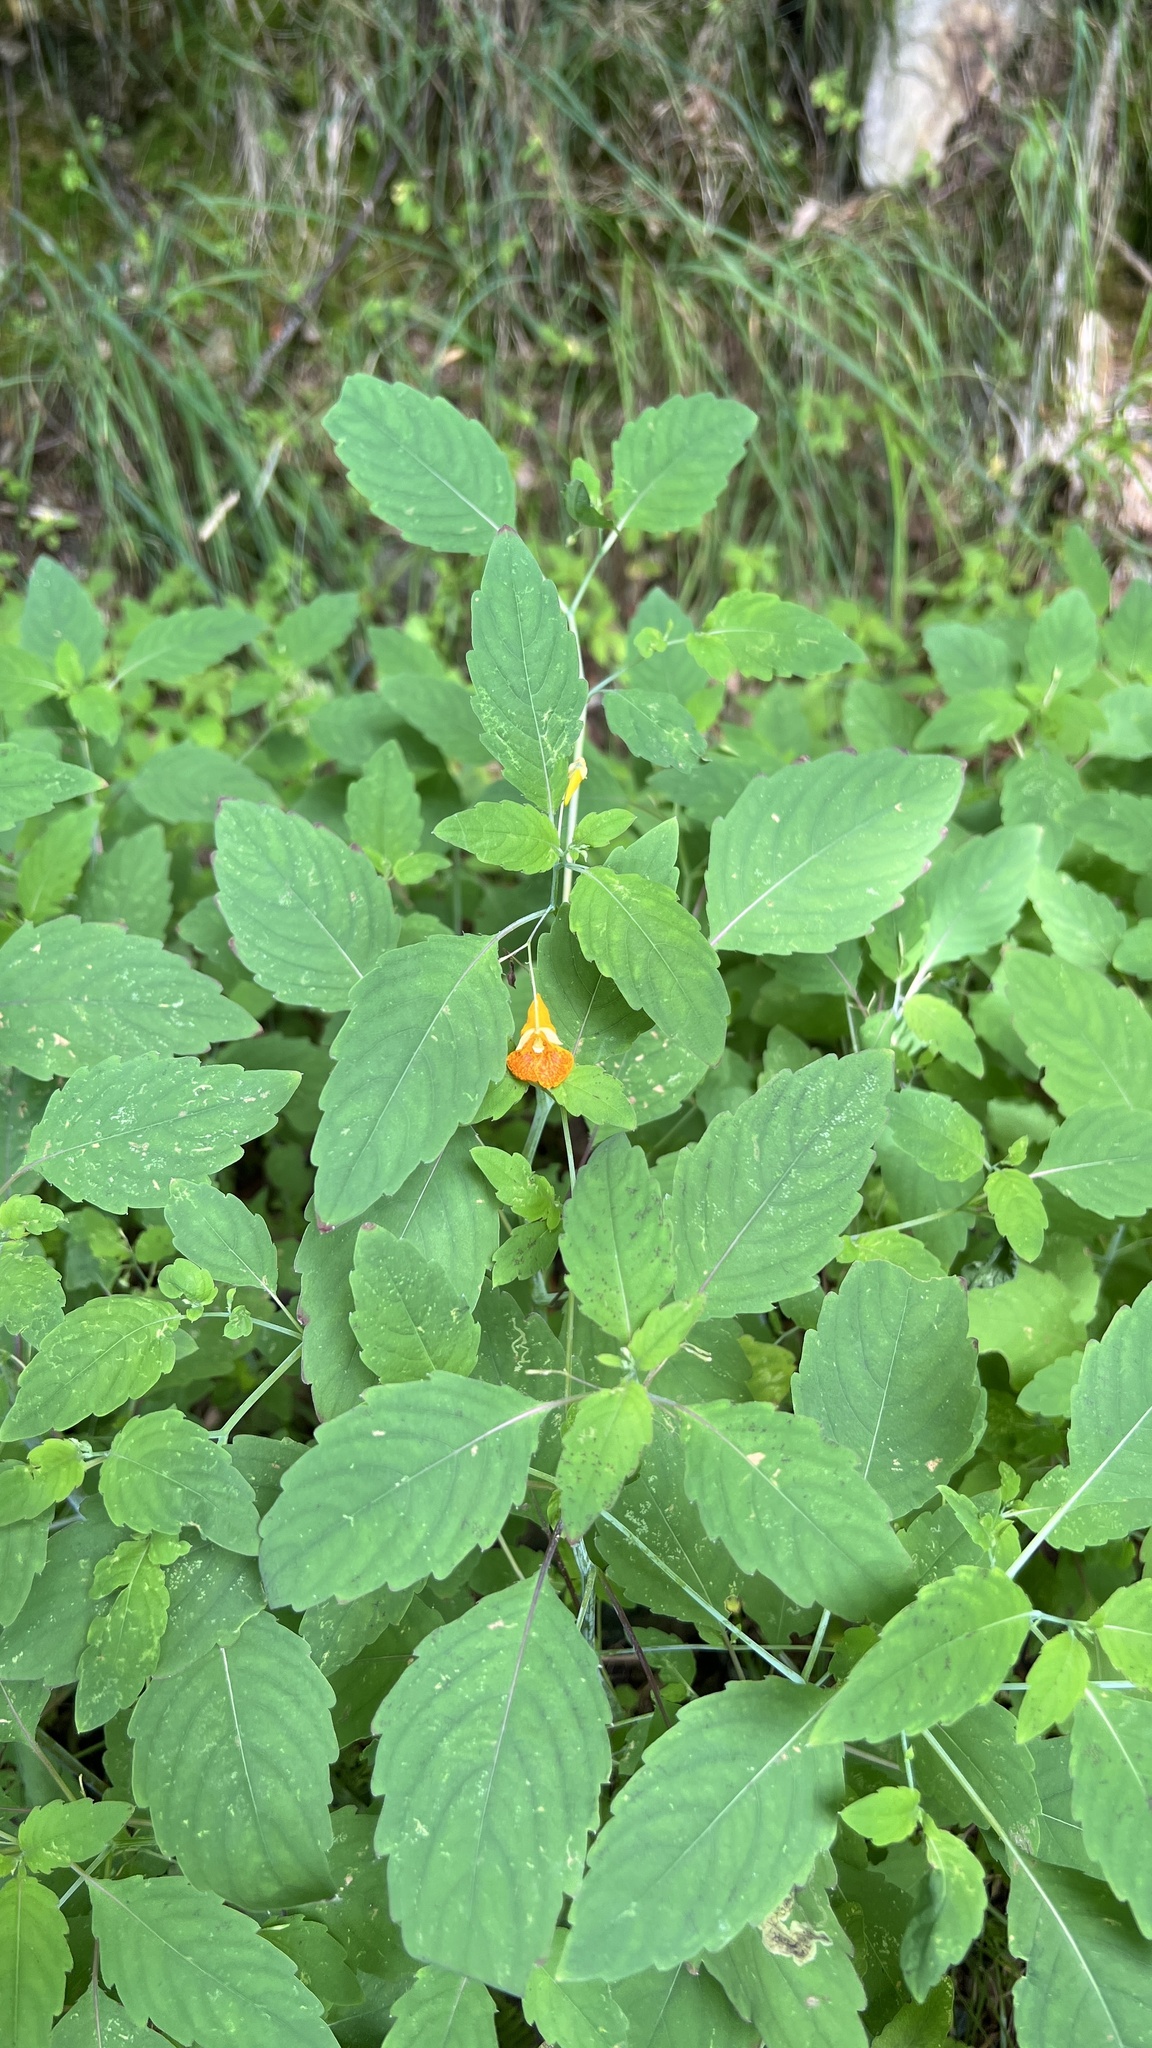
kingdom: Plantae
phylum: Tracheophyta
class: Magnoliopsida
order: Ericales
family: Balsaminaceae
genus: Impatiens
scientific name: Impatiens capensis
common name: Orange balsam
